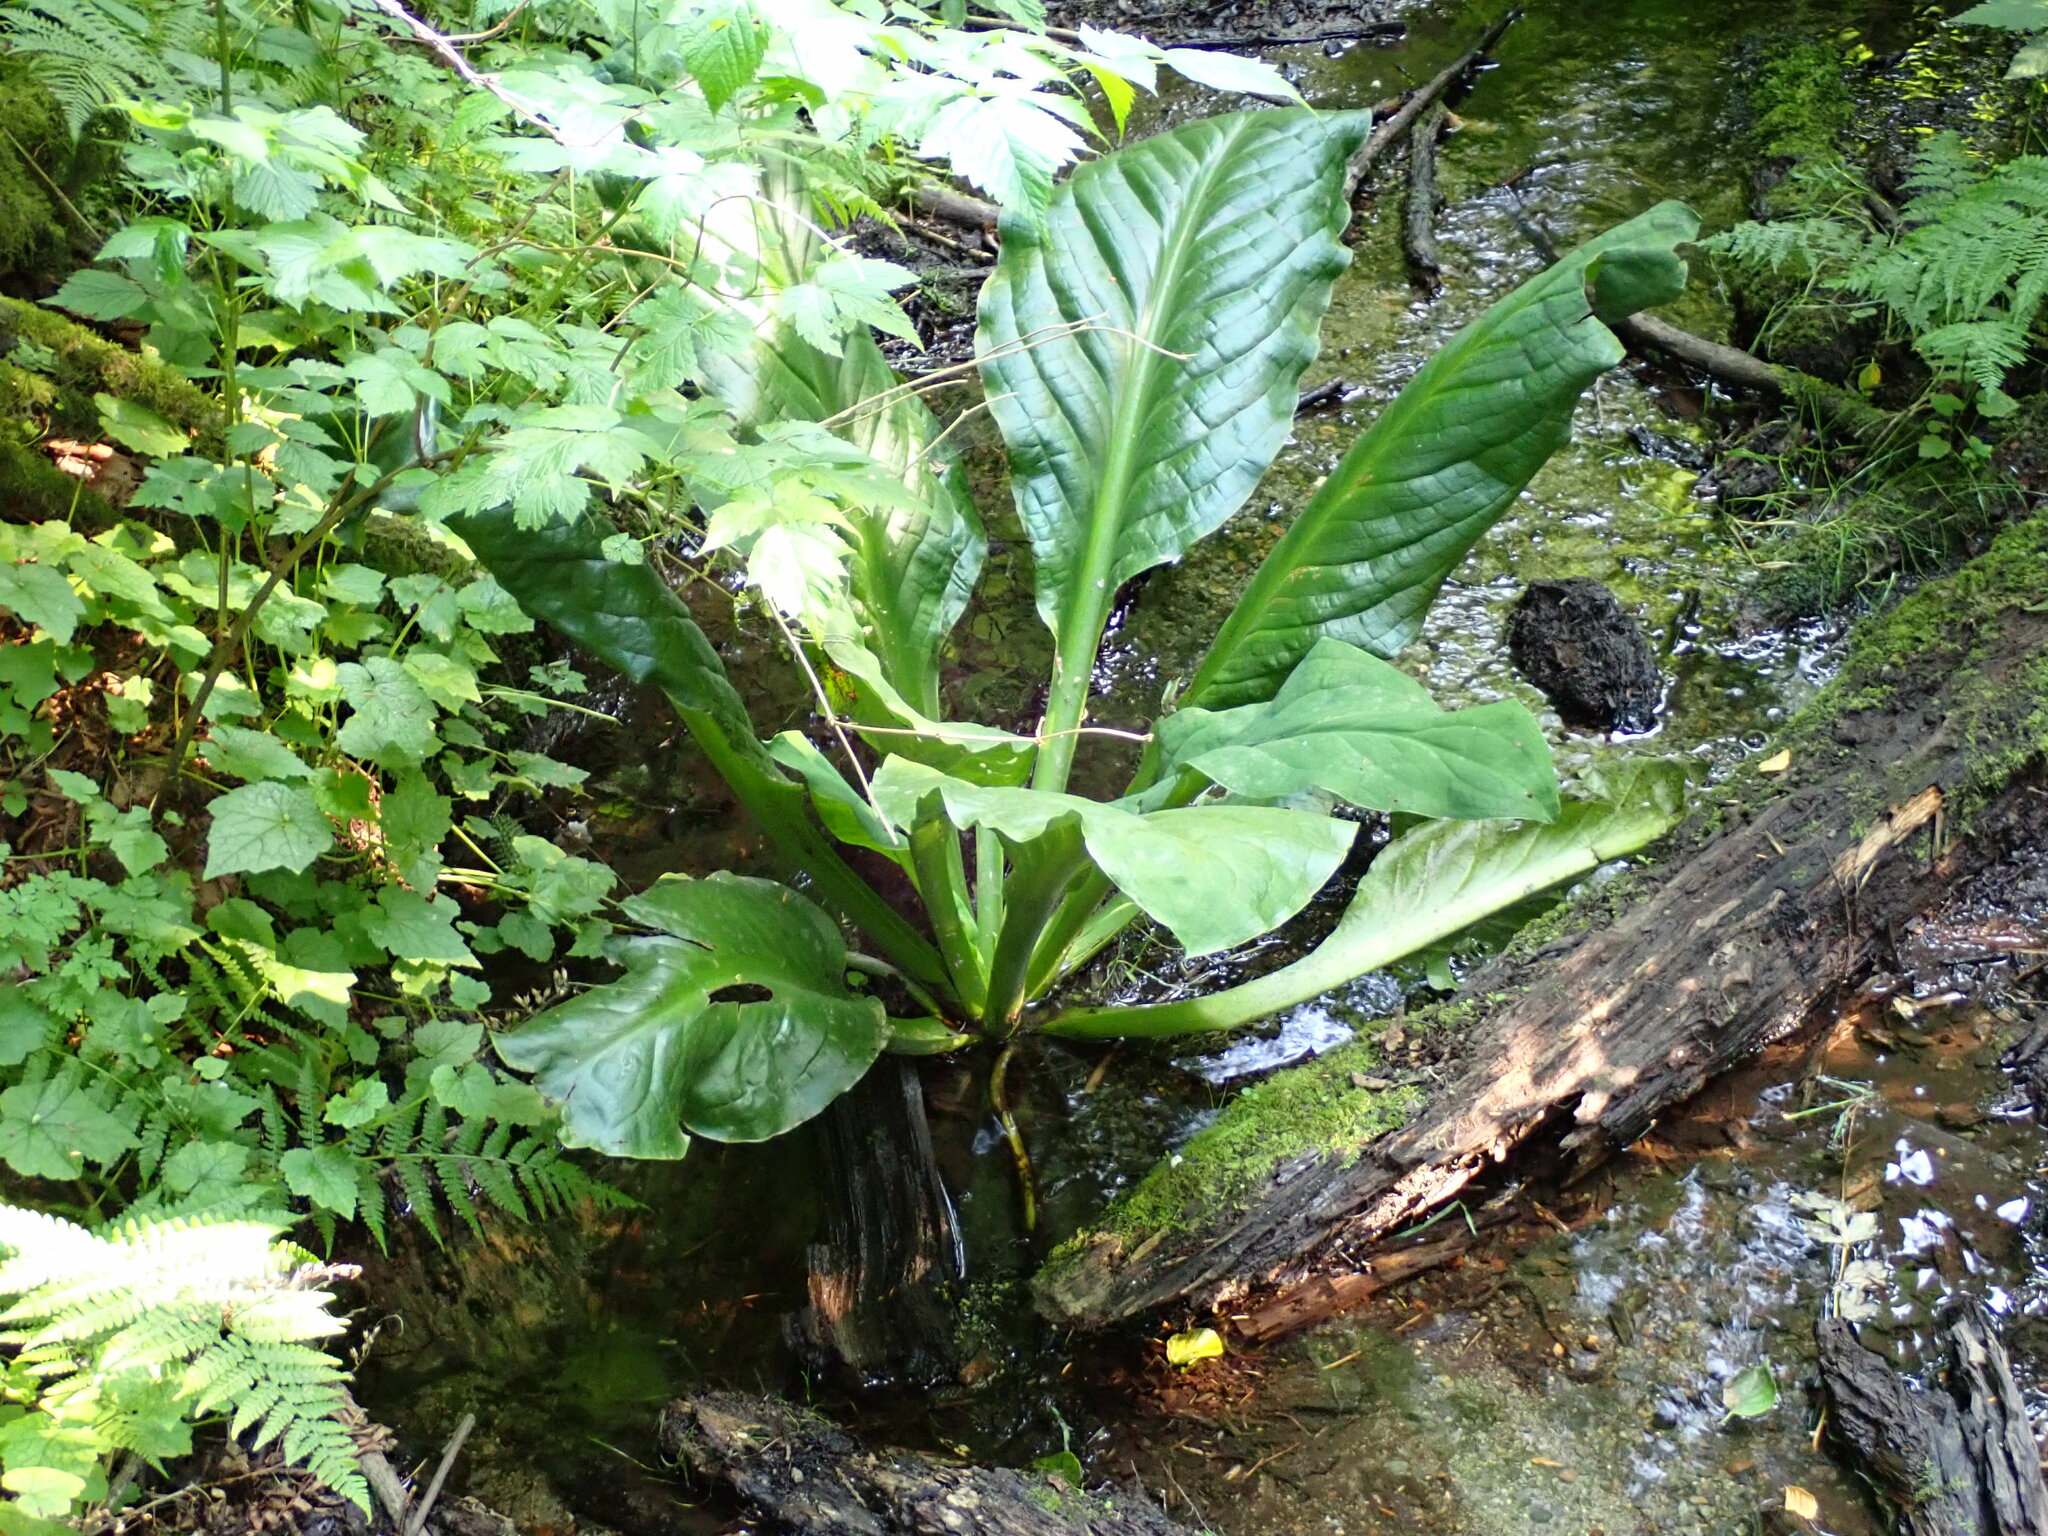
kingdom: Plantae
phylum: Tracheophyta
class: Liliopsida
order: Alismatales
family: Araceae
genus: Lysichiton
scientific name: Lysichiton americanus
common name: American skunk cabbage
